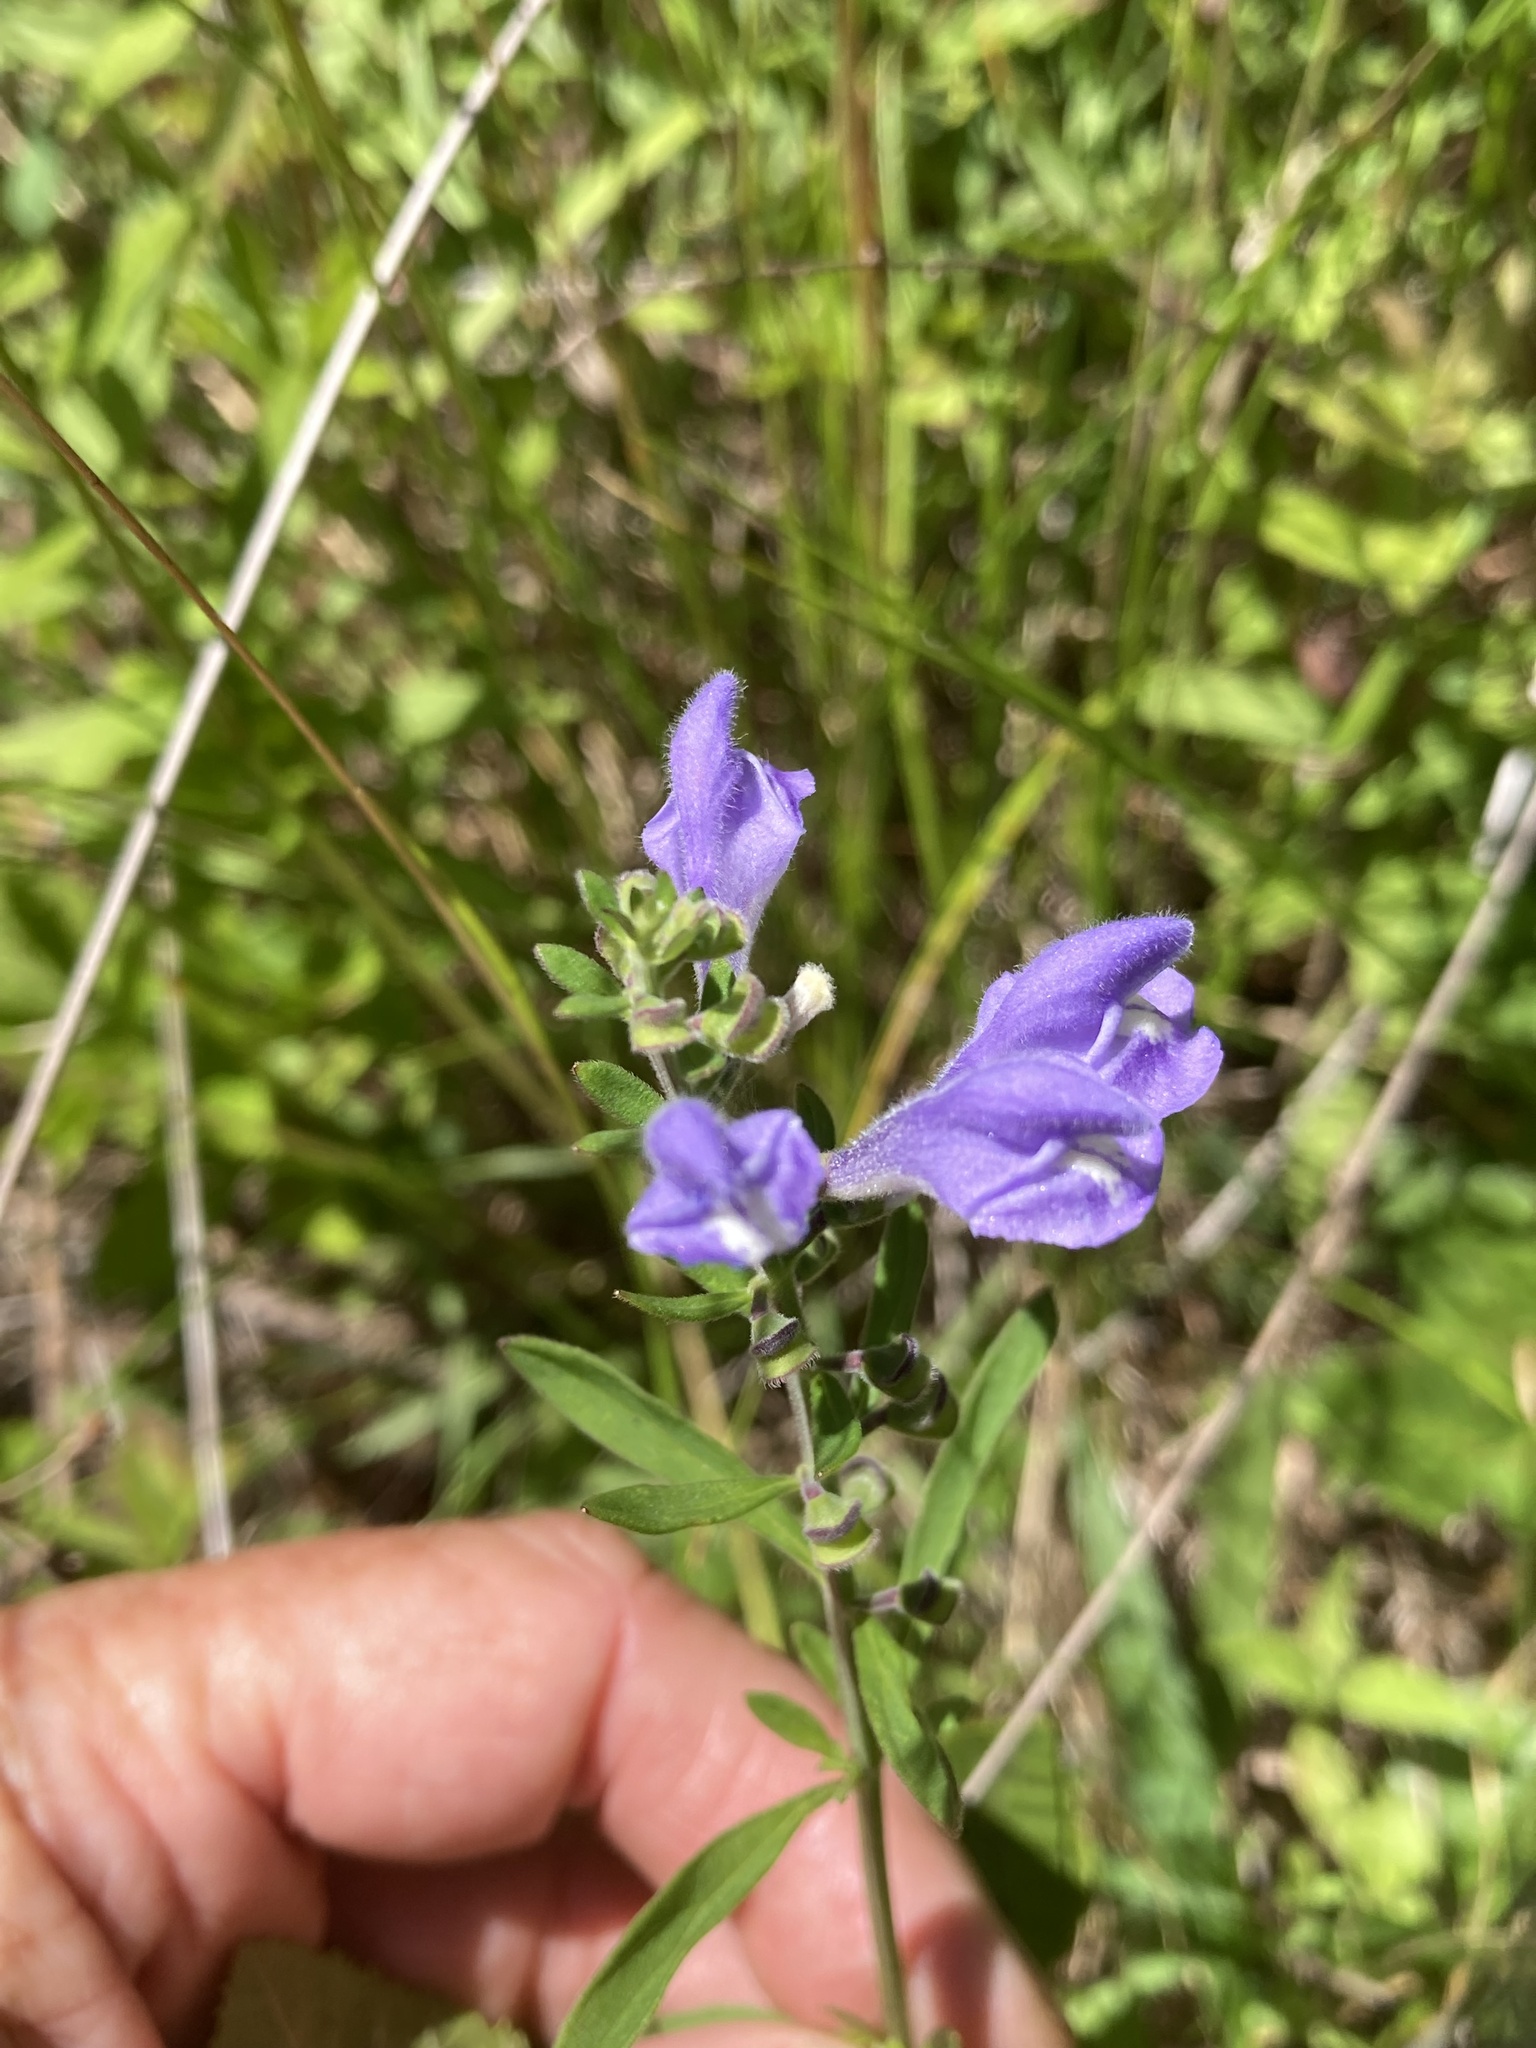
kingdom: Plantae
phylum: Tracheophyta
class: Magnoliopsida
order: Lamiales
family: Lamiaceae
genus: Scutellaria
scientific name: Scutellaria integrifolia
